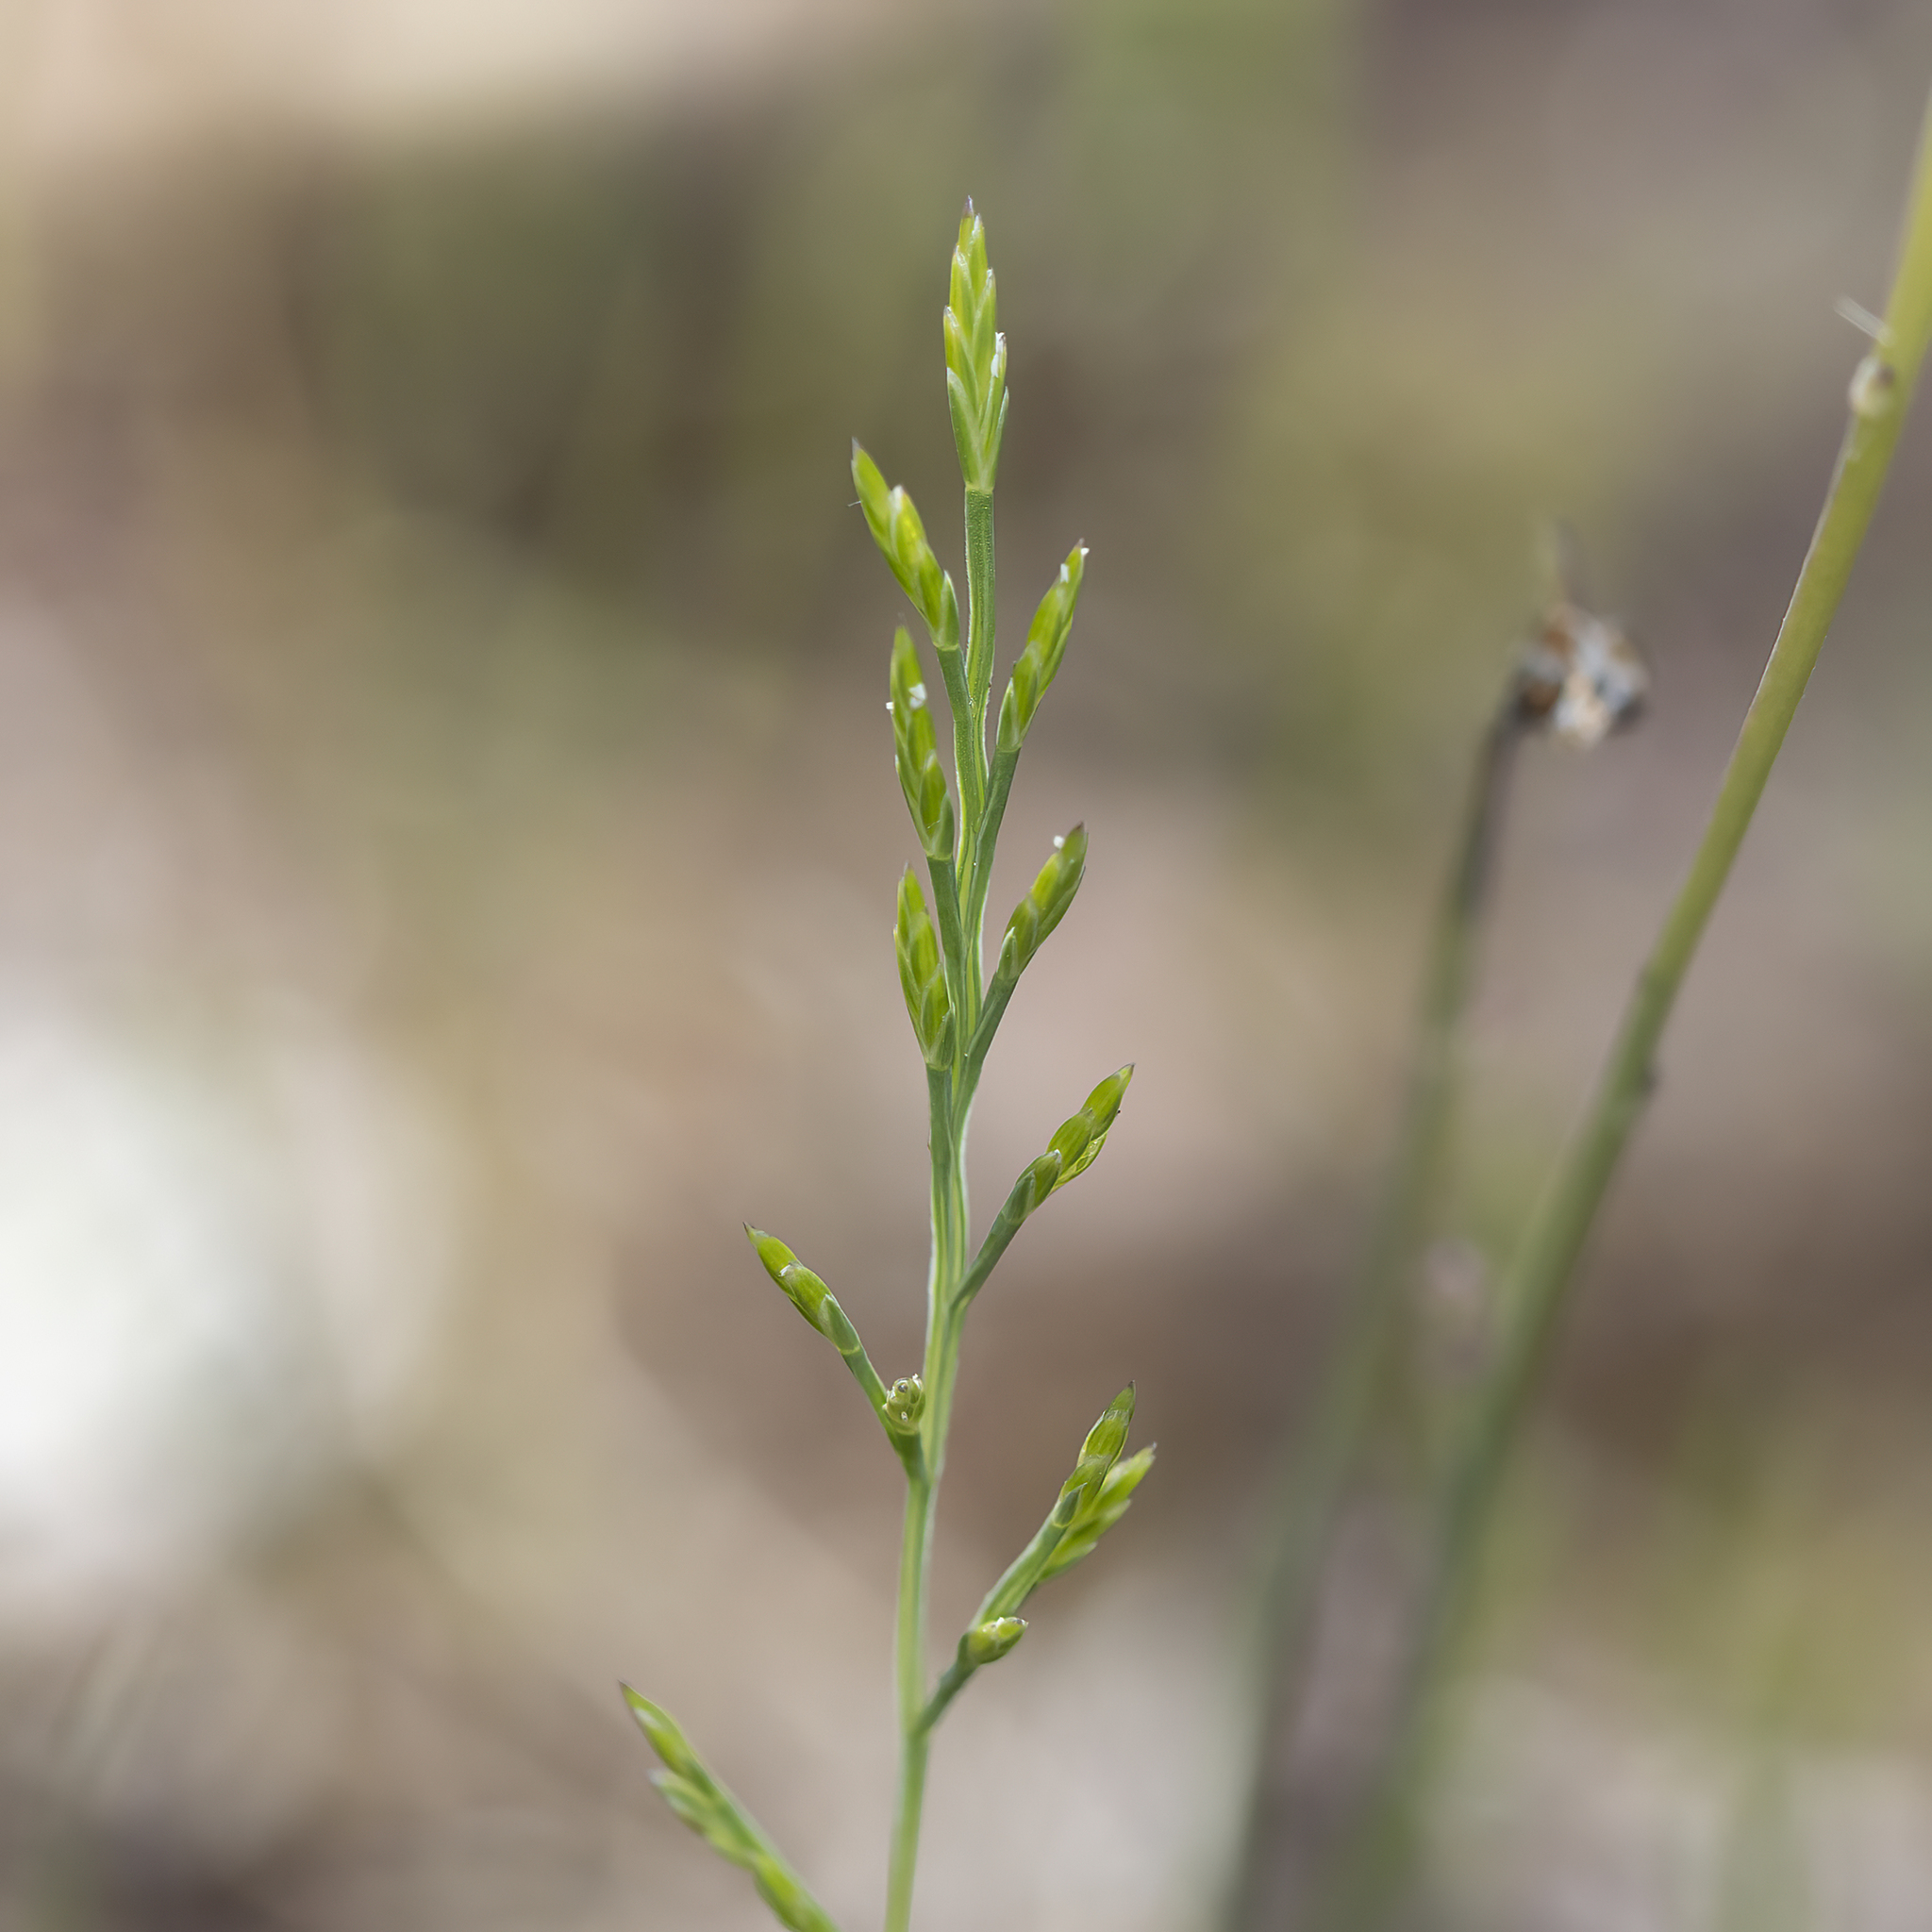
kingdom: Plantae
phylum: Tracheophyta
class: Liliopsida
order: Poales
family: Poaceae
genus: Catapodium
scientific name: Catapodium rigidum
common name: Fern-grass
